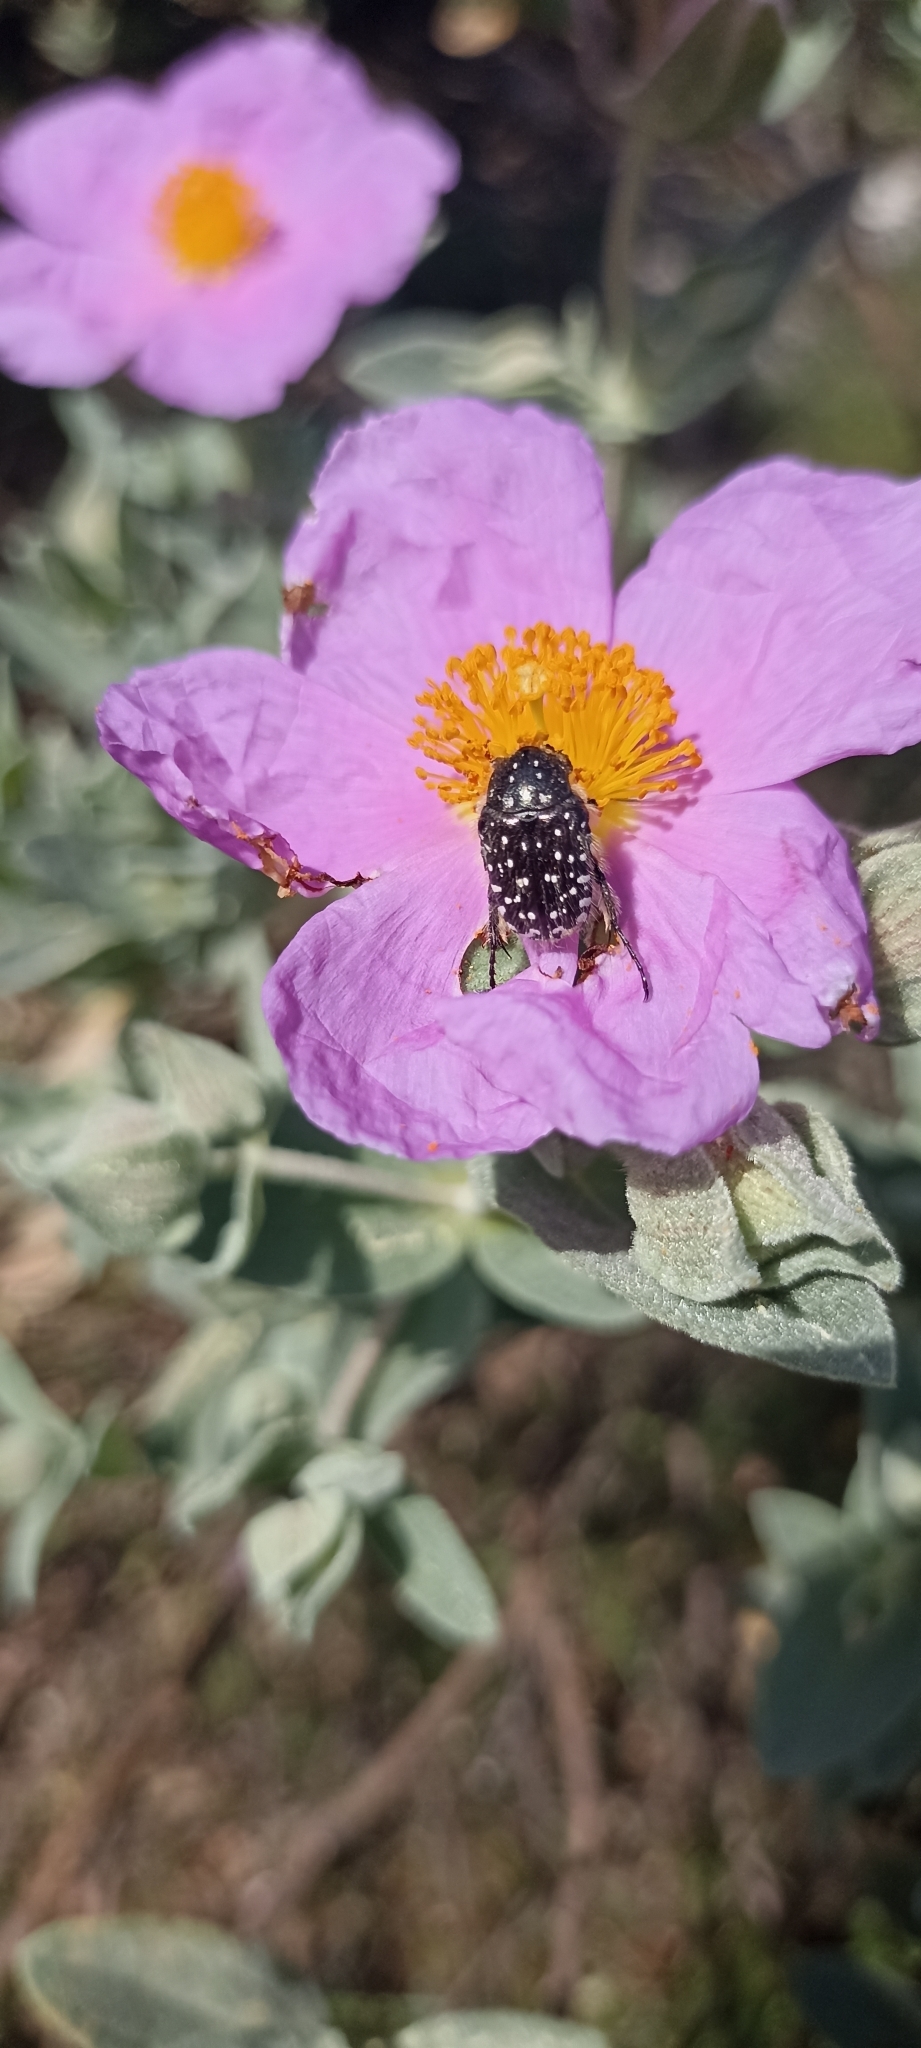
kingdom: Animalia
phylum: Arthropoda
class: Insecta
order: Coleoptera
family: Scarabaeidae
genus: Oxythyrea
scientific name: Oxythyrea funesta
